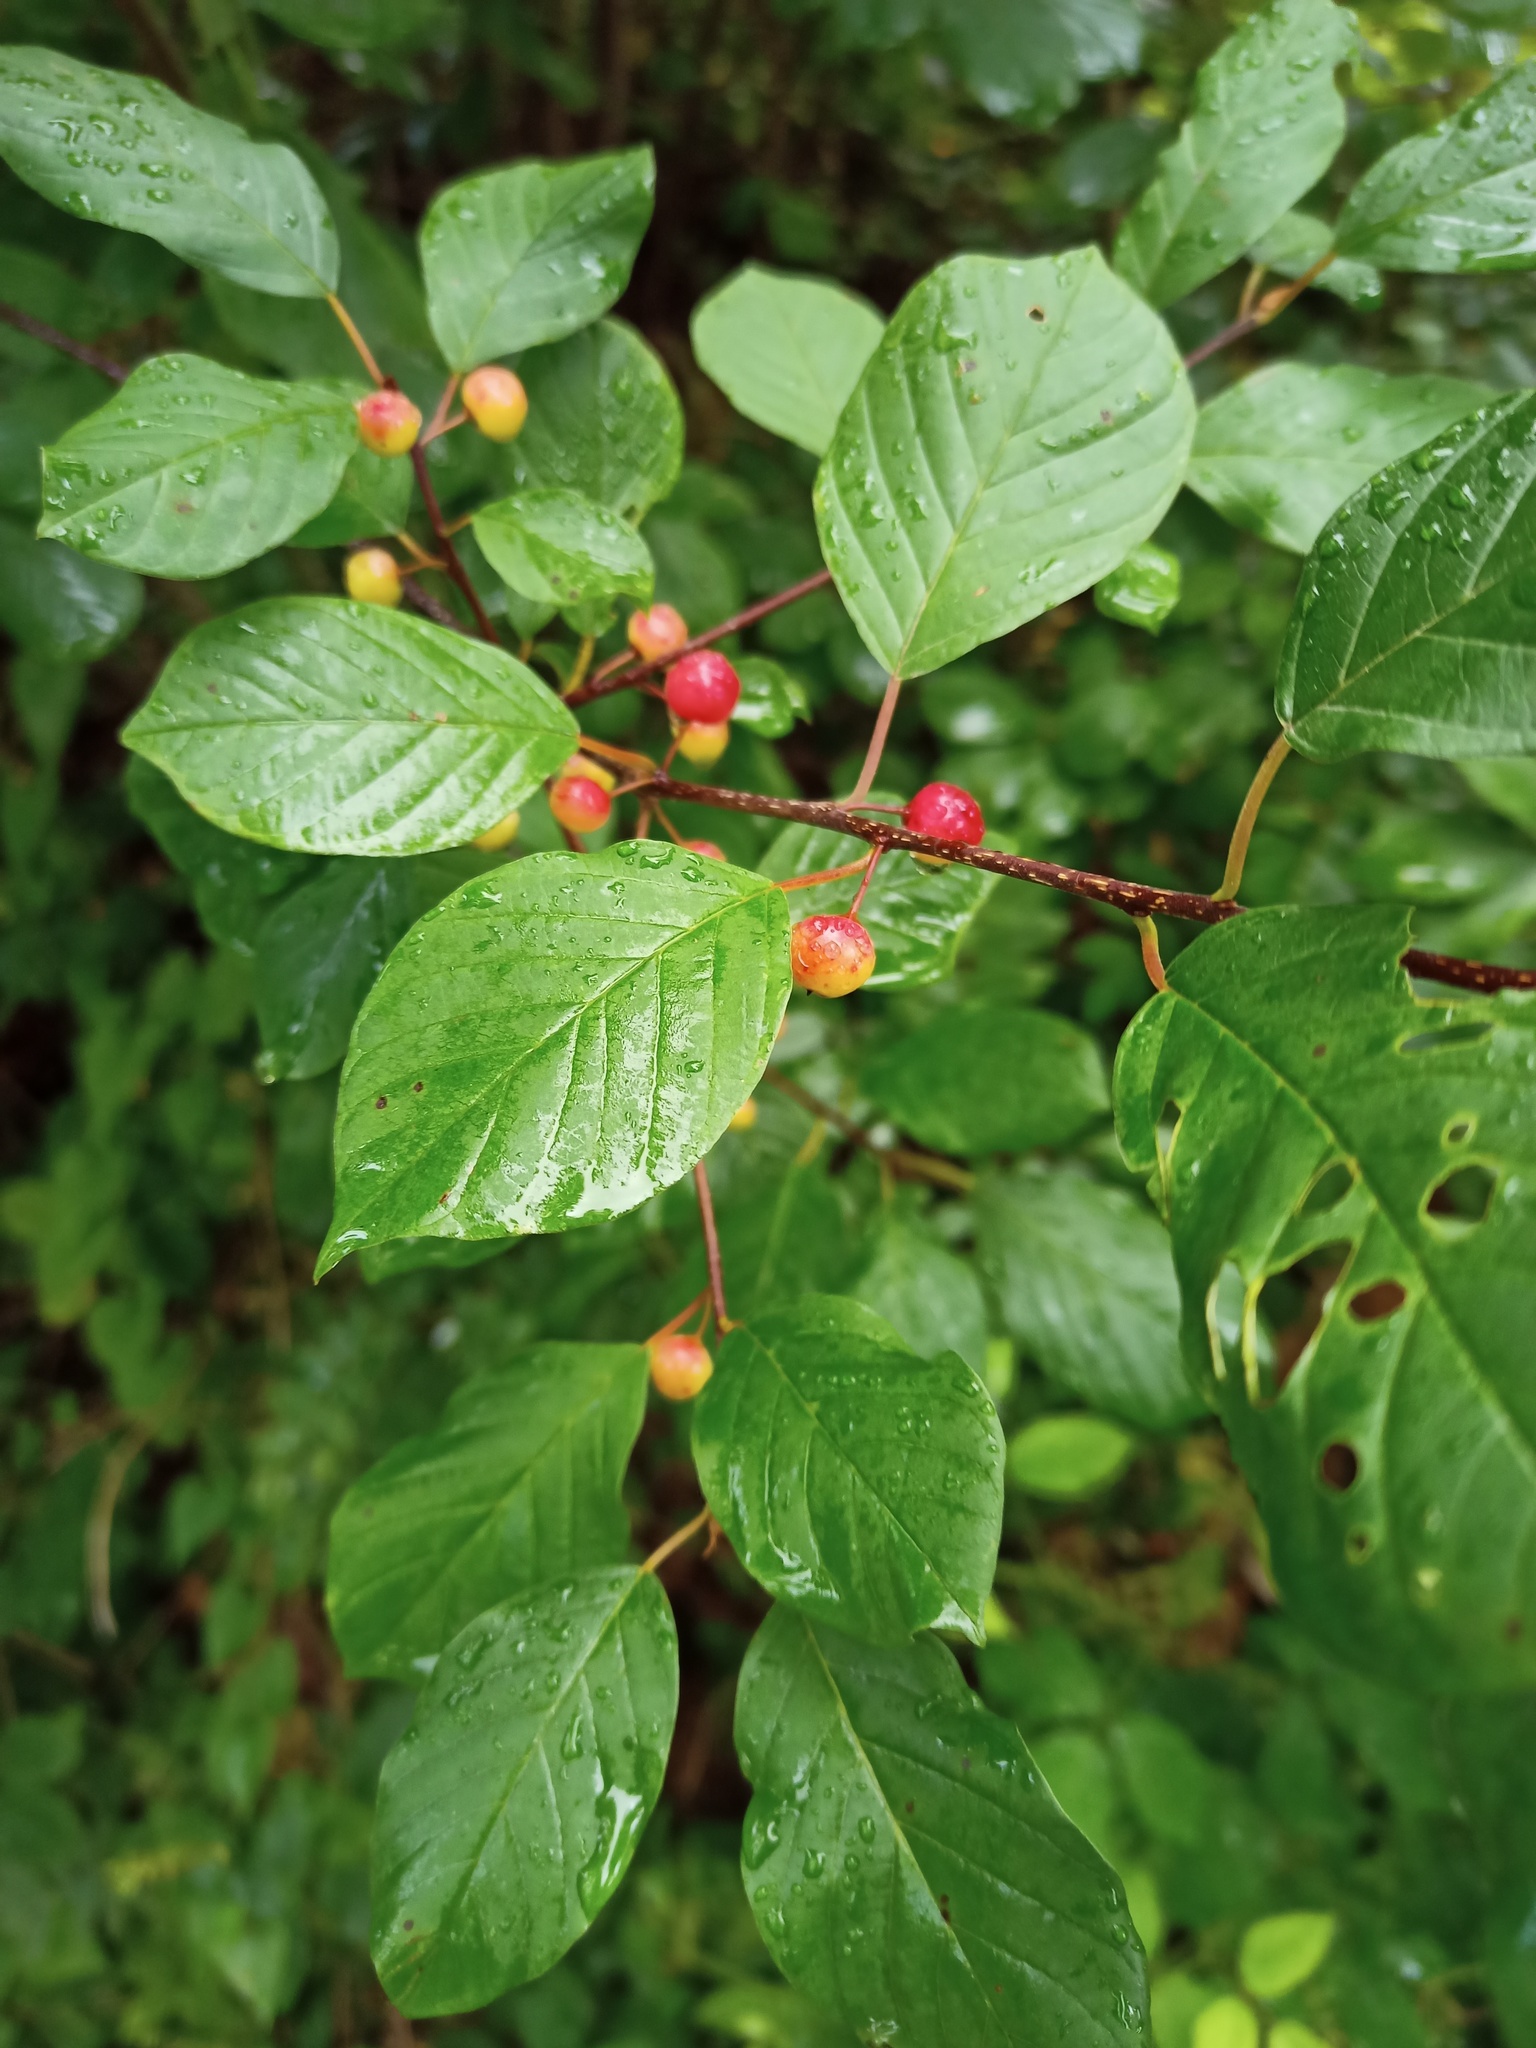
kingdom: Plantae
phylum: Tracheophyta
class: Magnoliopsida
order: Rosales
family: Rhamnaceae
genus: Frangula
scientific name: Frangula alnus
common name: Alder buckthorn
